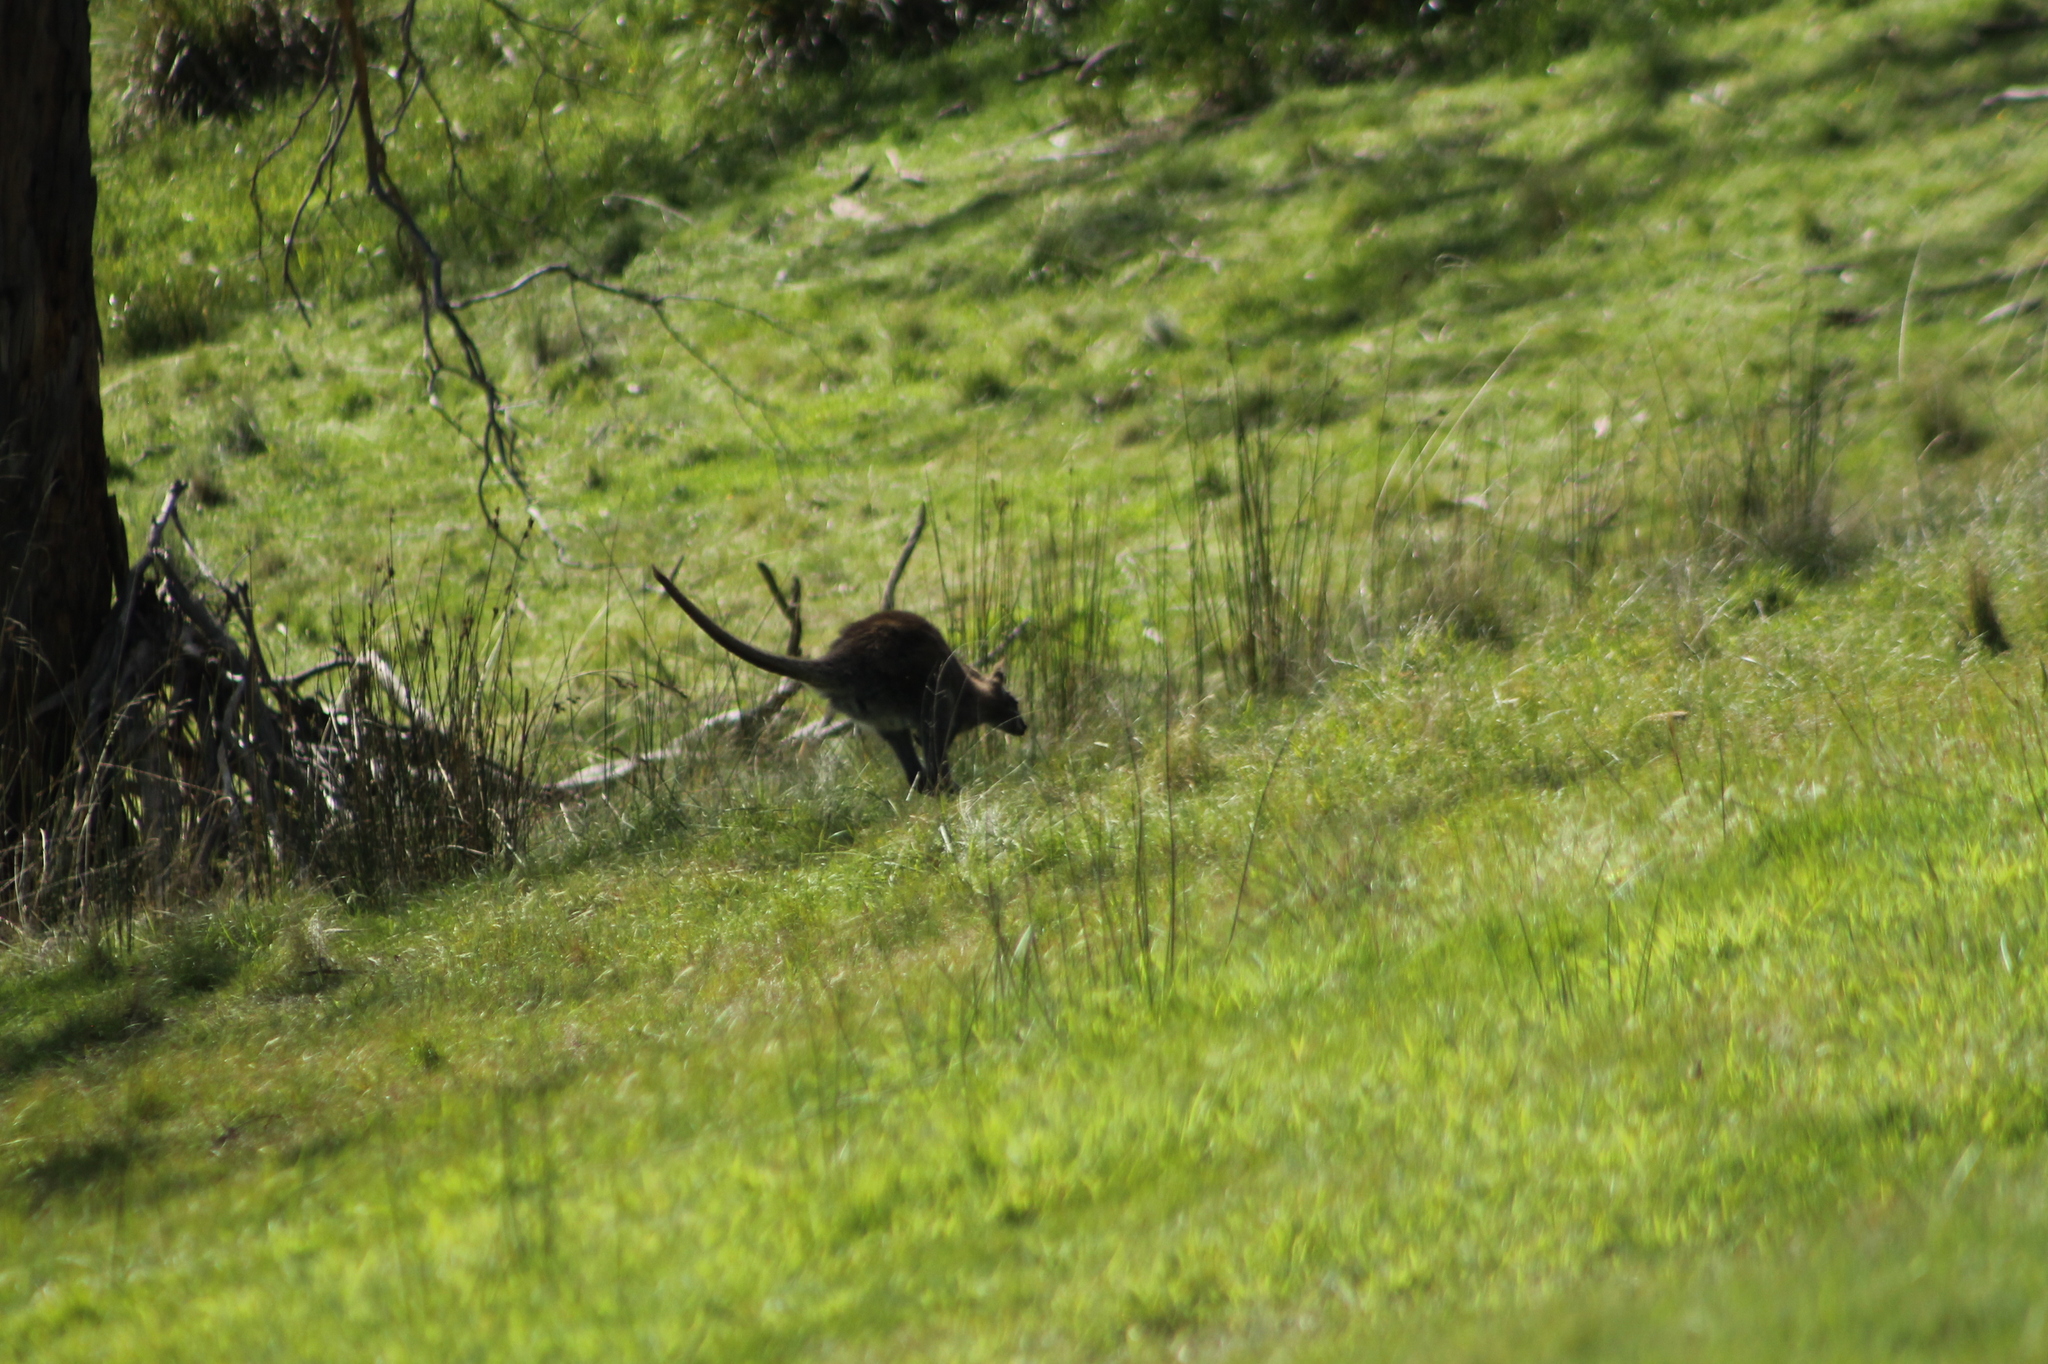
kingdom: Animalia
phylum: Chordata
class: Mammalia
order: Diprotodontia
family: Macropodidae
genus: Notamacropus
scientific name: Notamacropus rufogriseus
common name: Red-necked wallaby
